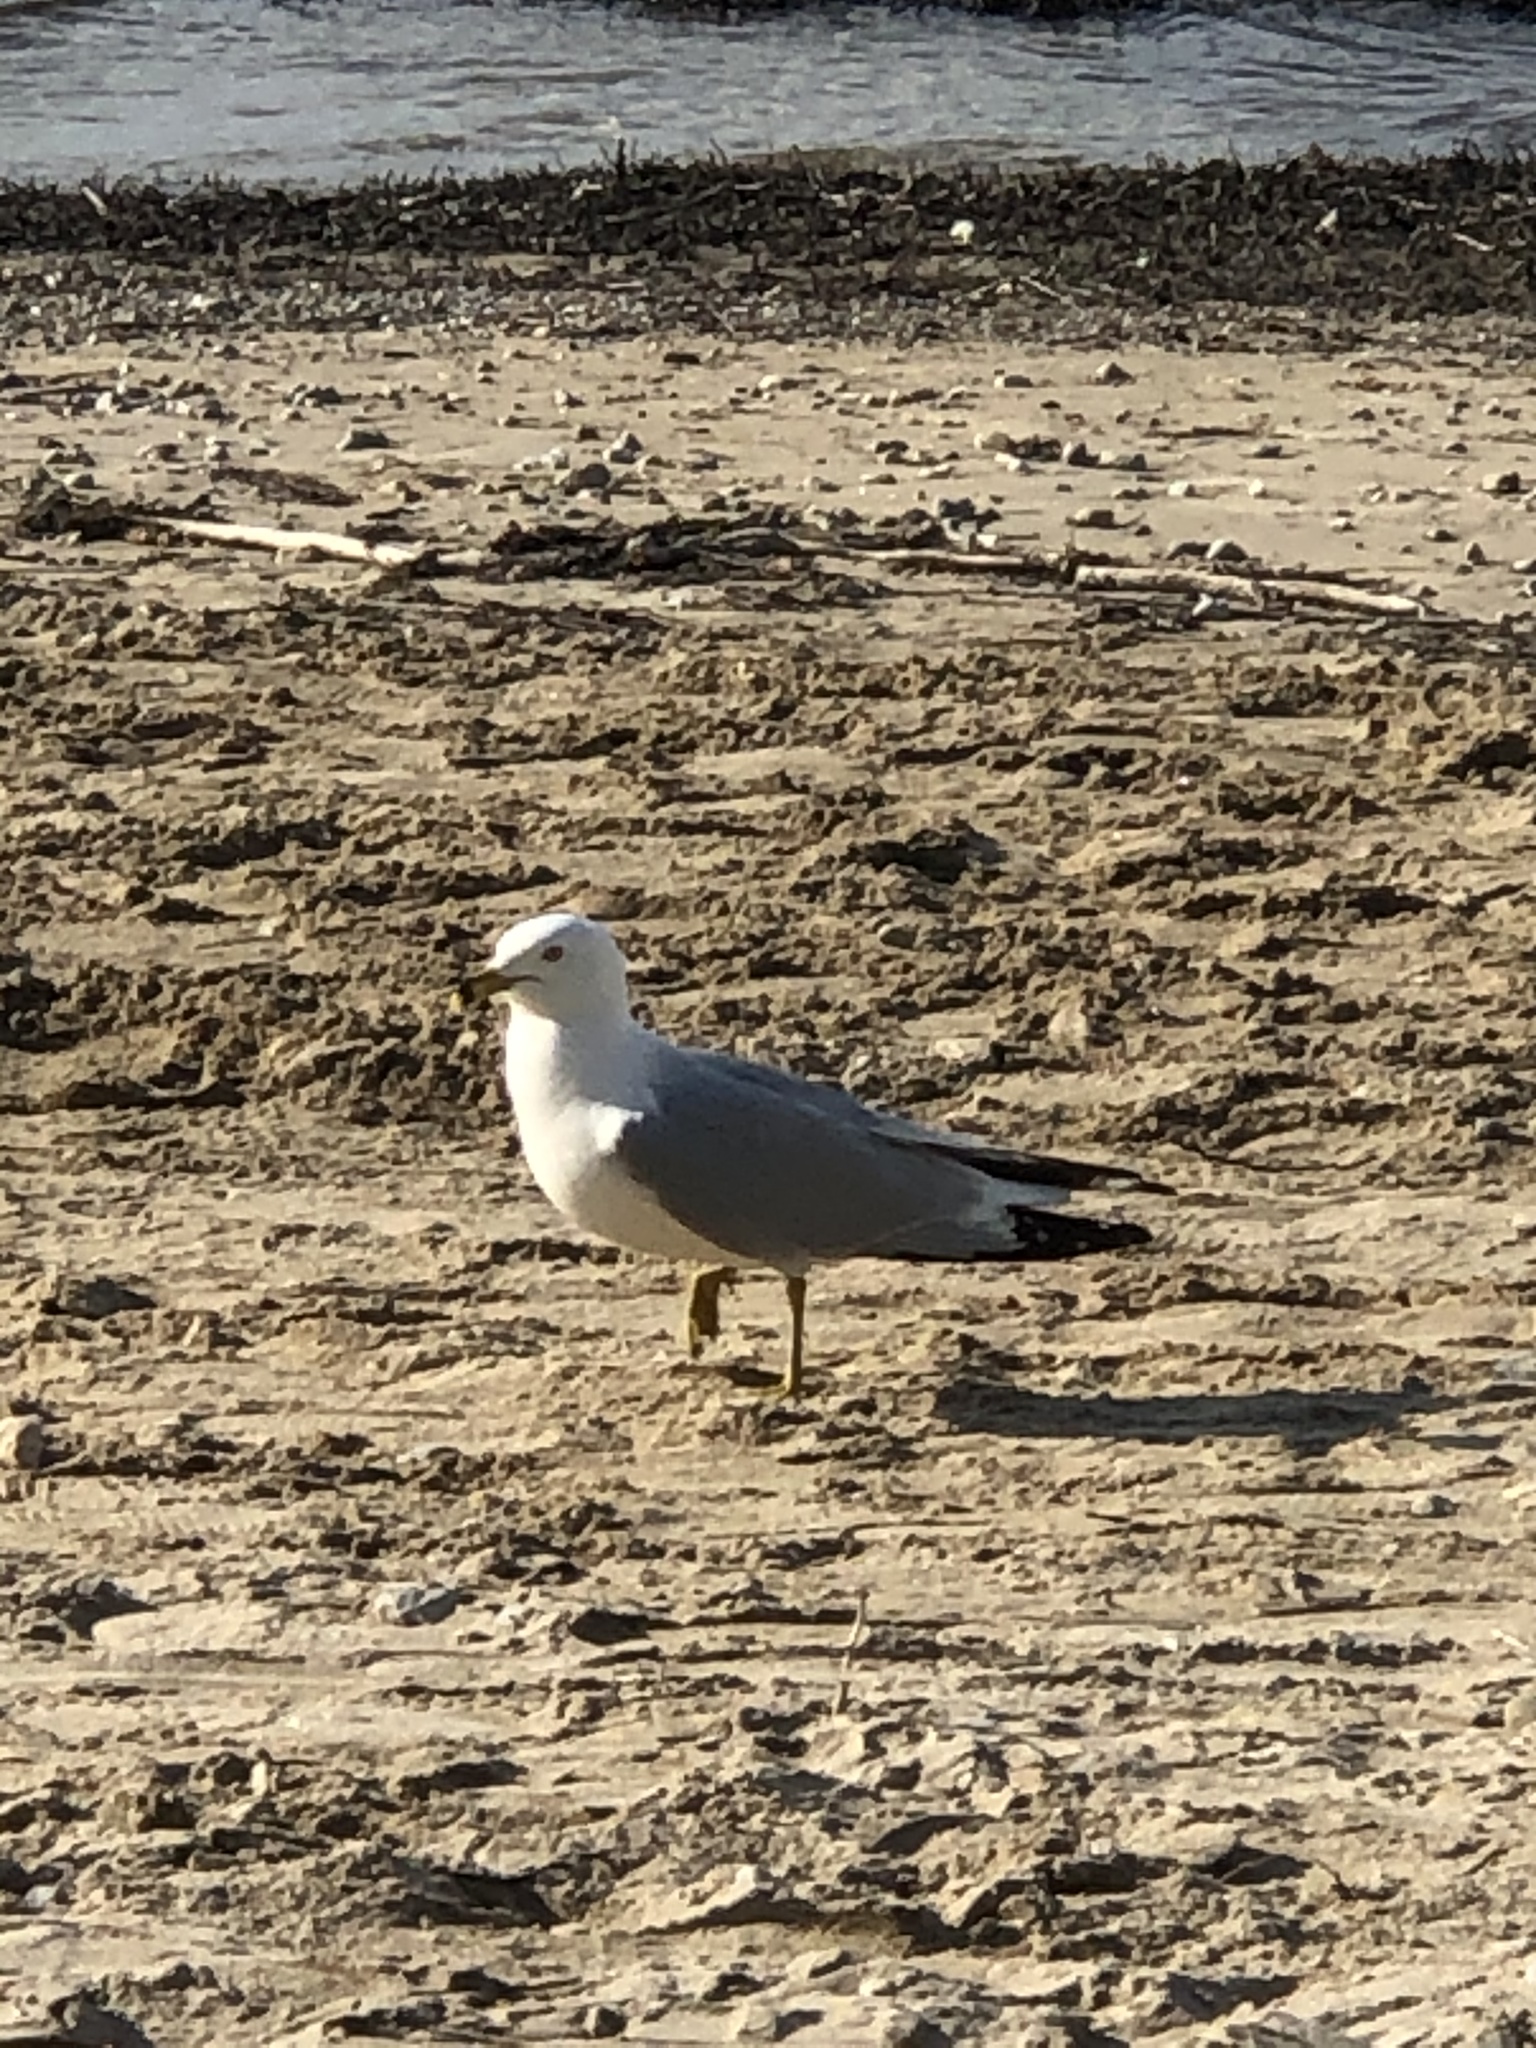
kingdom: Animalia
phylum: Chordata
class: Aves
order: Charadriiformes
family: Laridae
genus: Larus
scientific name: Larus delawarensis
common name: Ring-billed gull
